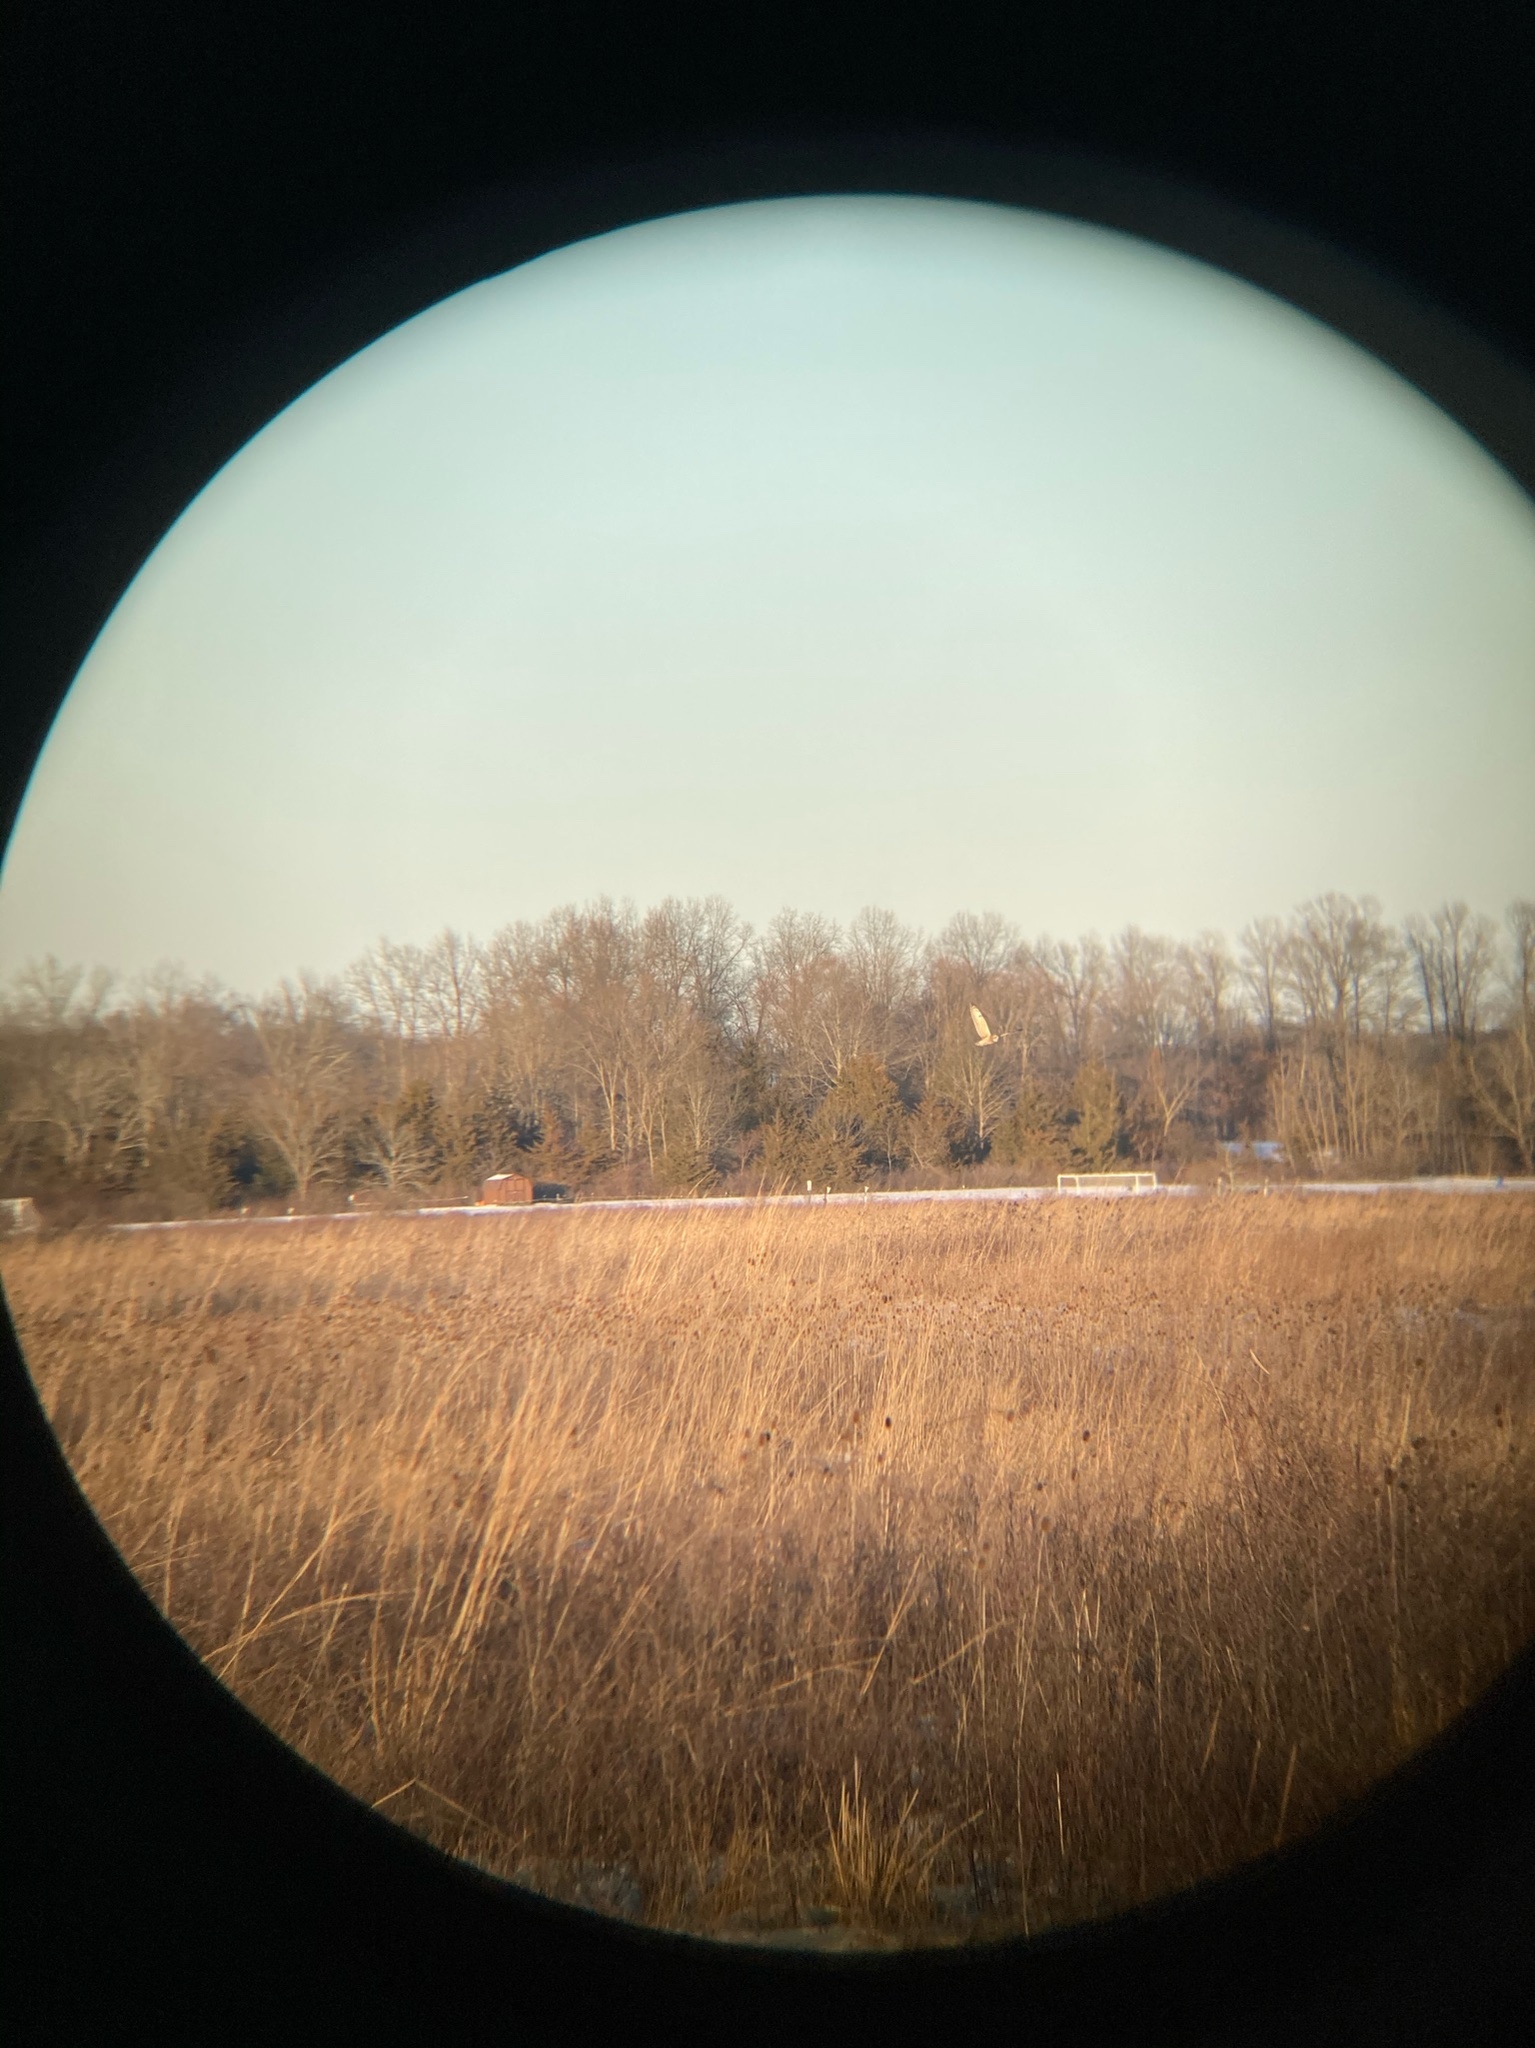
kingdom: Animalia
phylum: Chordata
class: Aves
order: Strigiformes
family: Strigidae
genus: Asio
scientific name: Asio flammeus
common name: Short-eared owl
